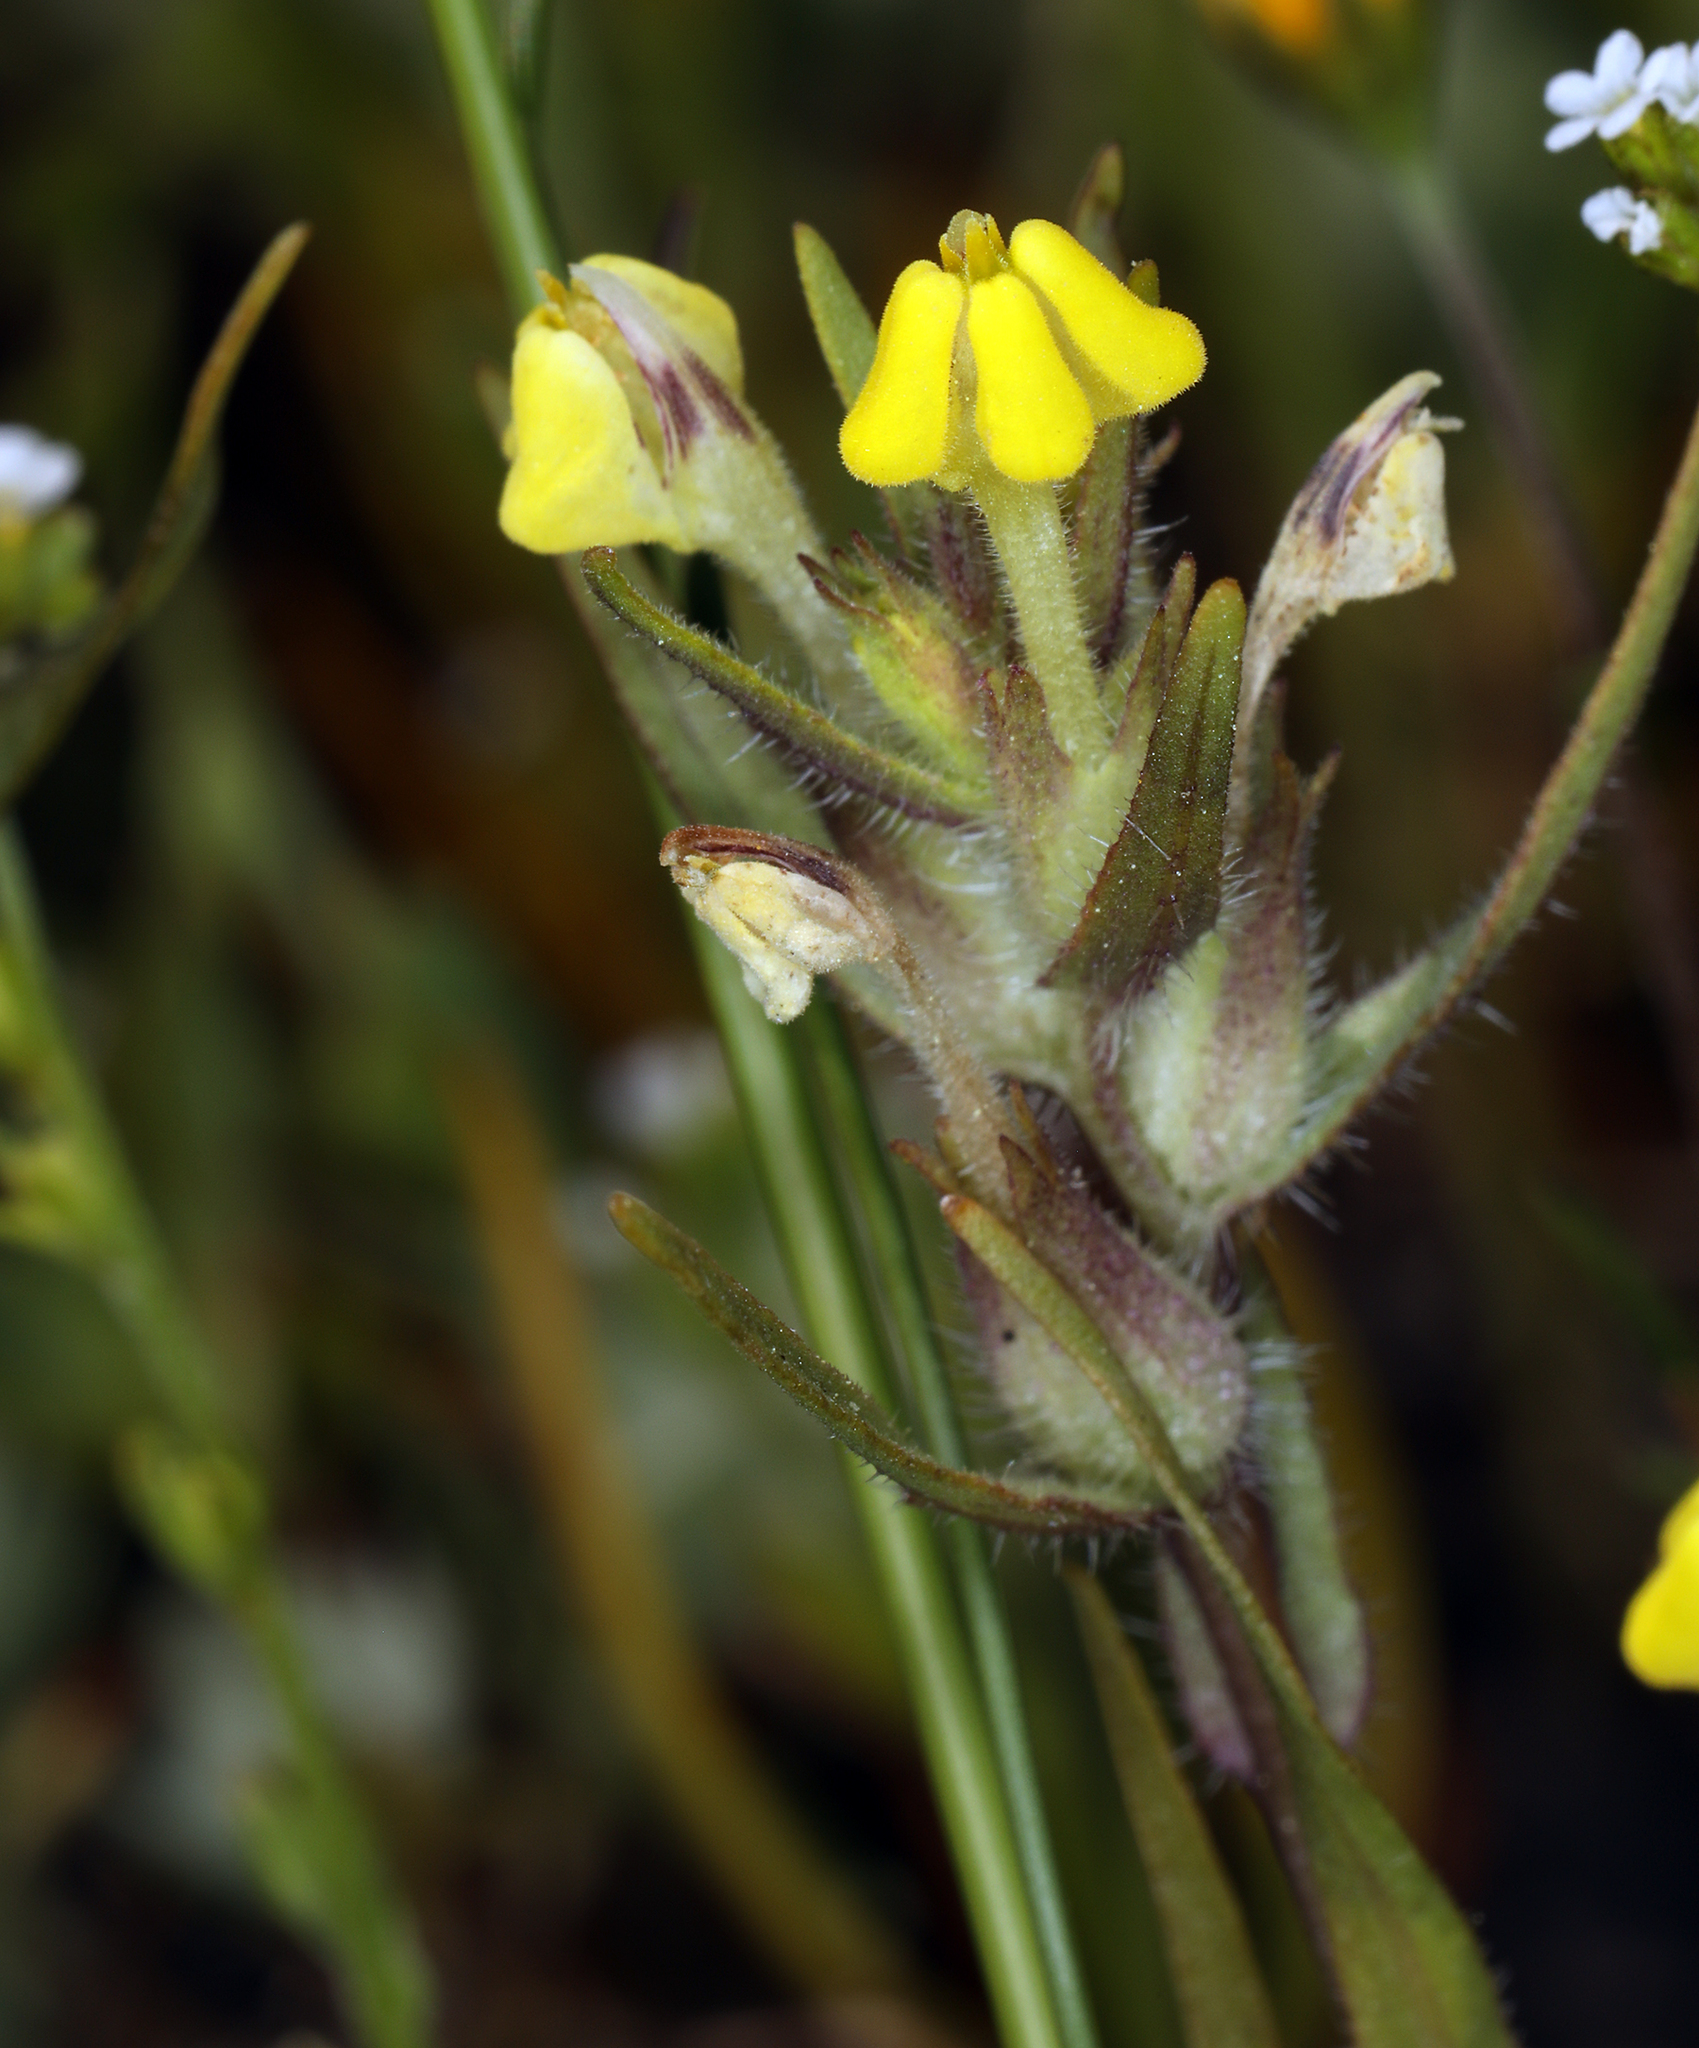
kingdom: Plantae
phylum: Tracheophyta
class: Magnoliopsida
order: Lamiales
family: Orobanchaceae
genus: Triphysaria
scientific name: Triphysaria eriantha
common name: Johnny-tuck
